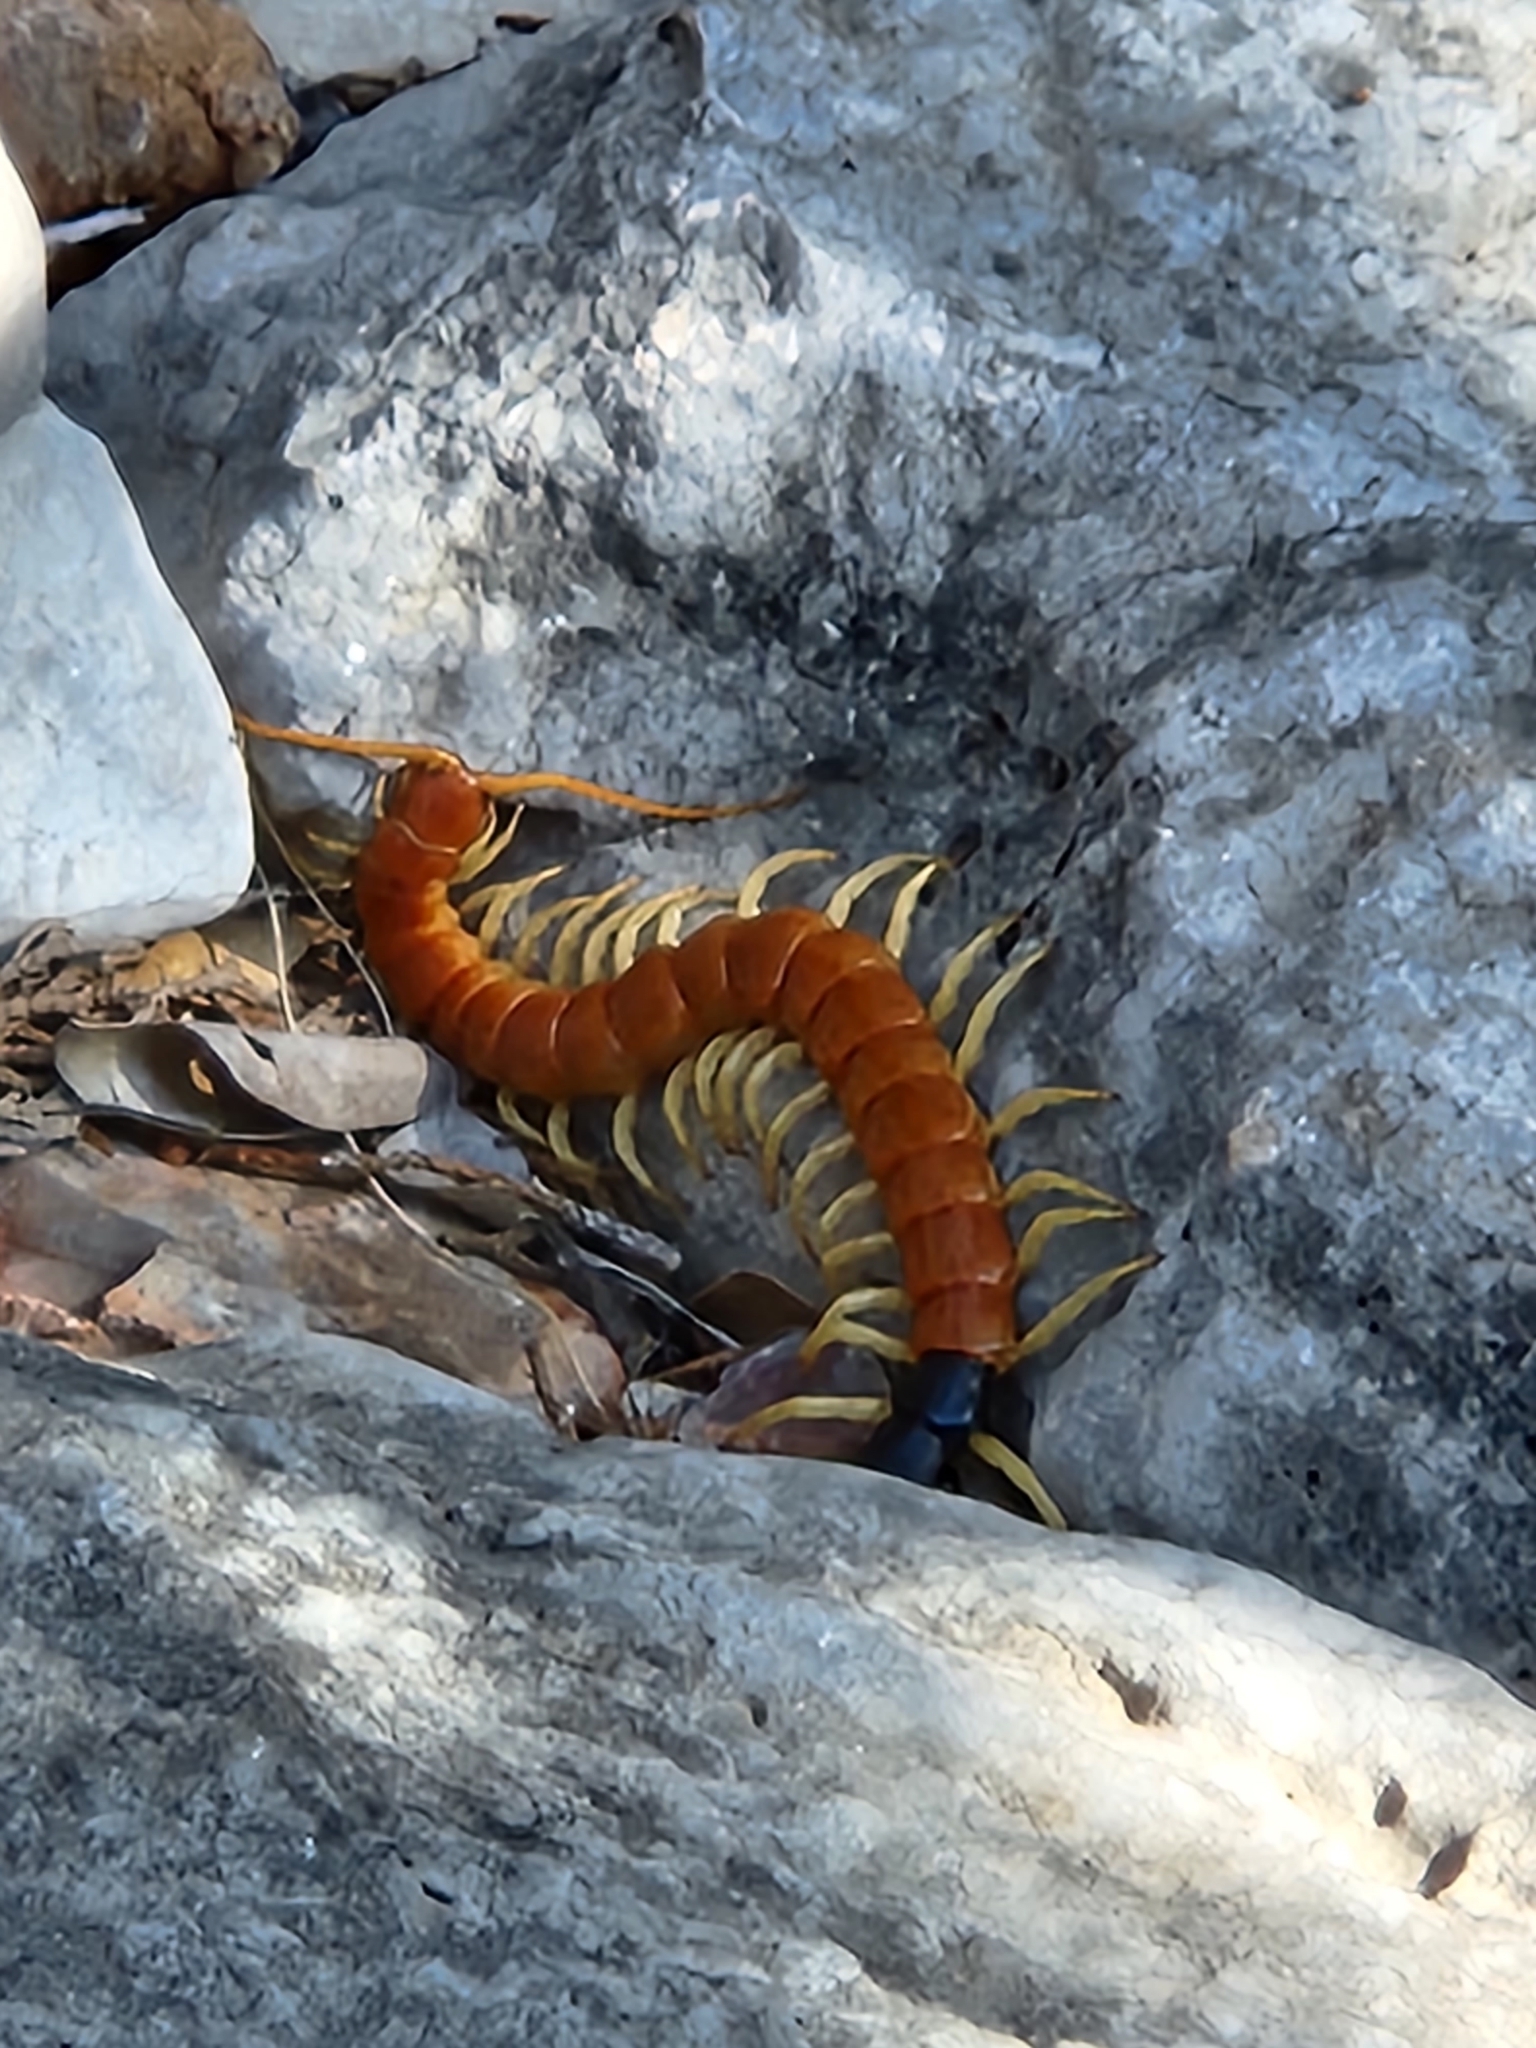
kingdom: Animalia
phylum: Arthropoda
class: Chilopoda
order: Scolopendromorpha
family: Scolopendridae
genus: Scolopendra
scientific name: Scolopendra heros
